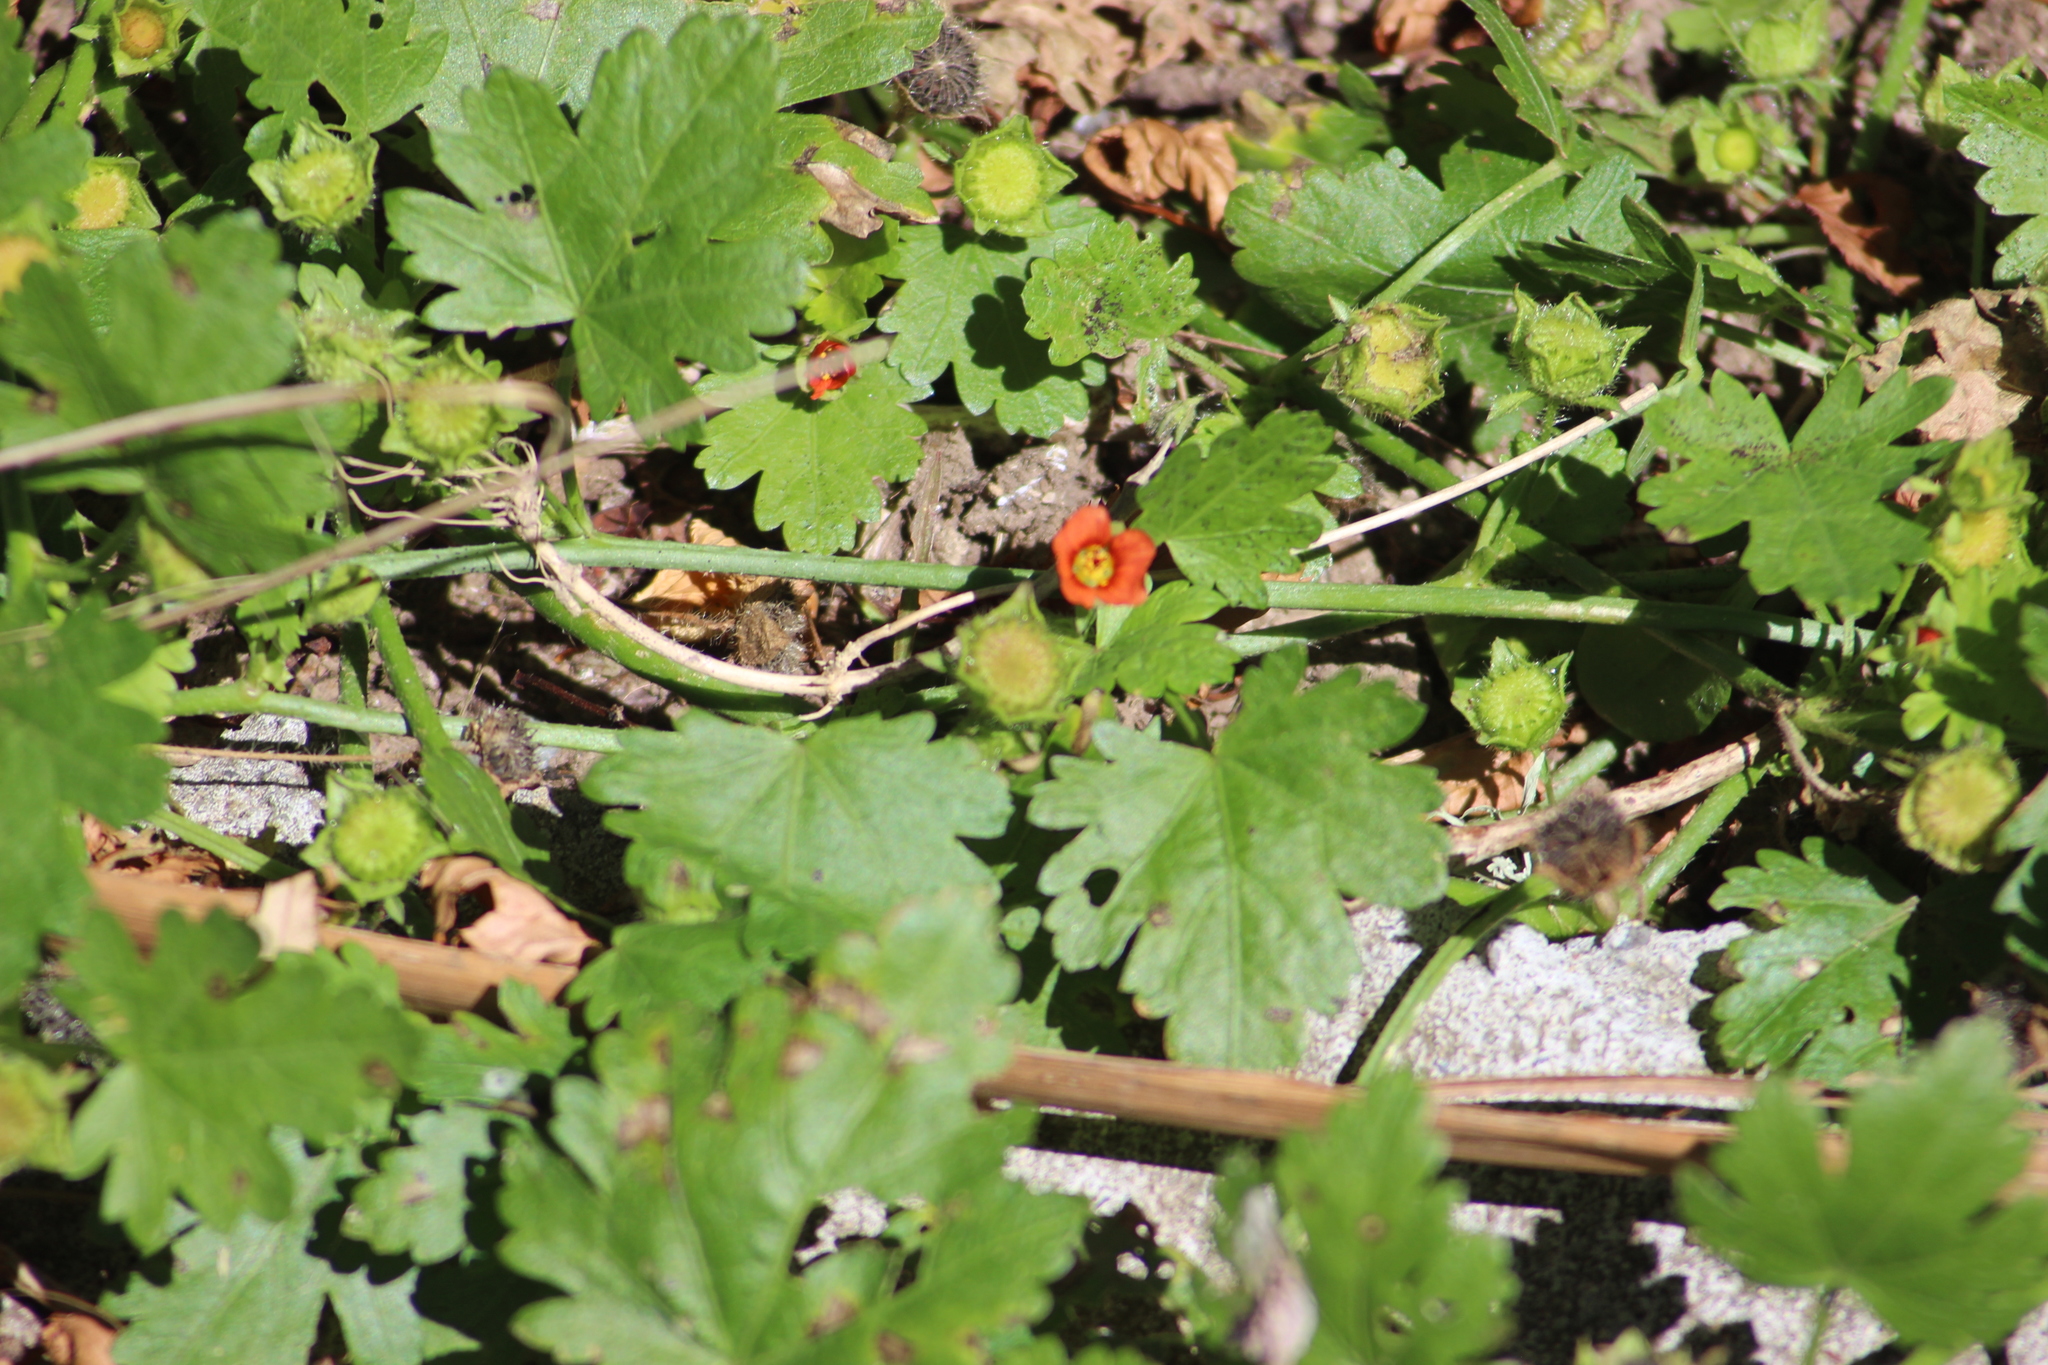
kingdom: Plantae
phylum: Tracheophyta
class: Magnoliopsida
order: Malvales
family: Malvaceae
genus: Modiola
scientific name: Modiola caroliniana
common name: Carolina bristlemallow
